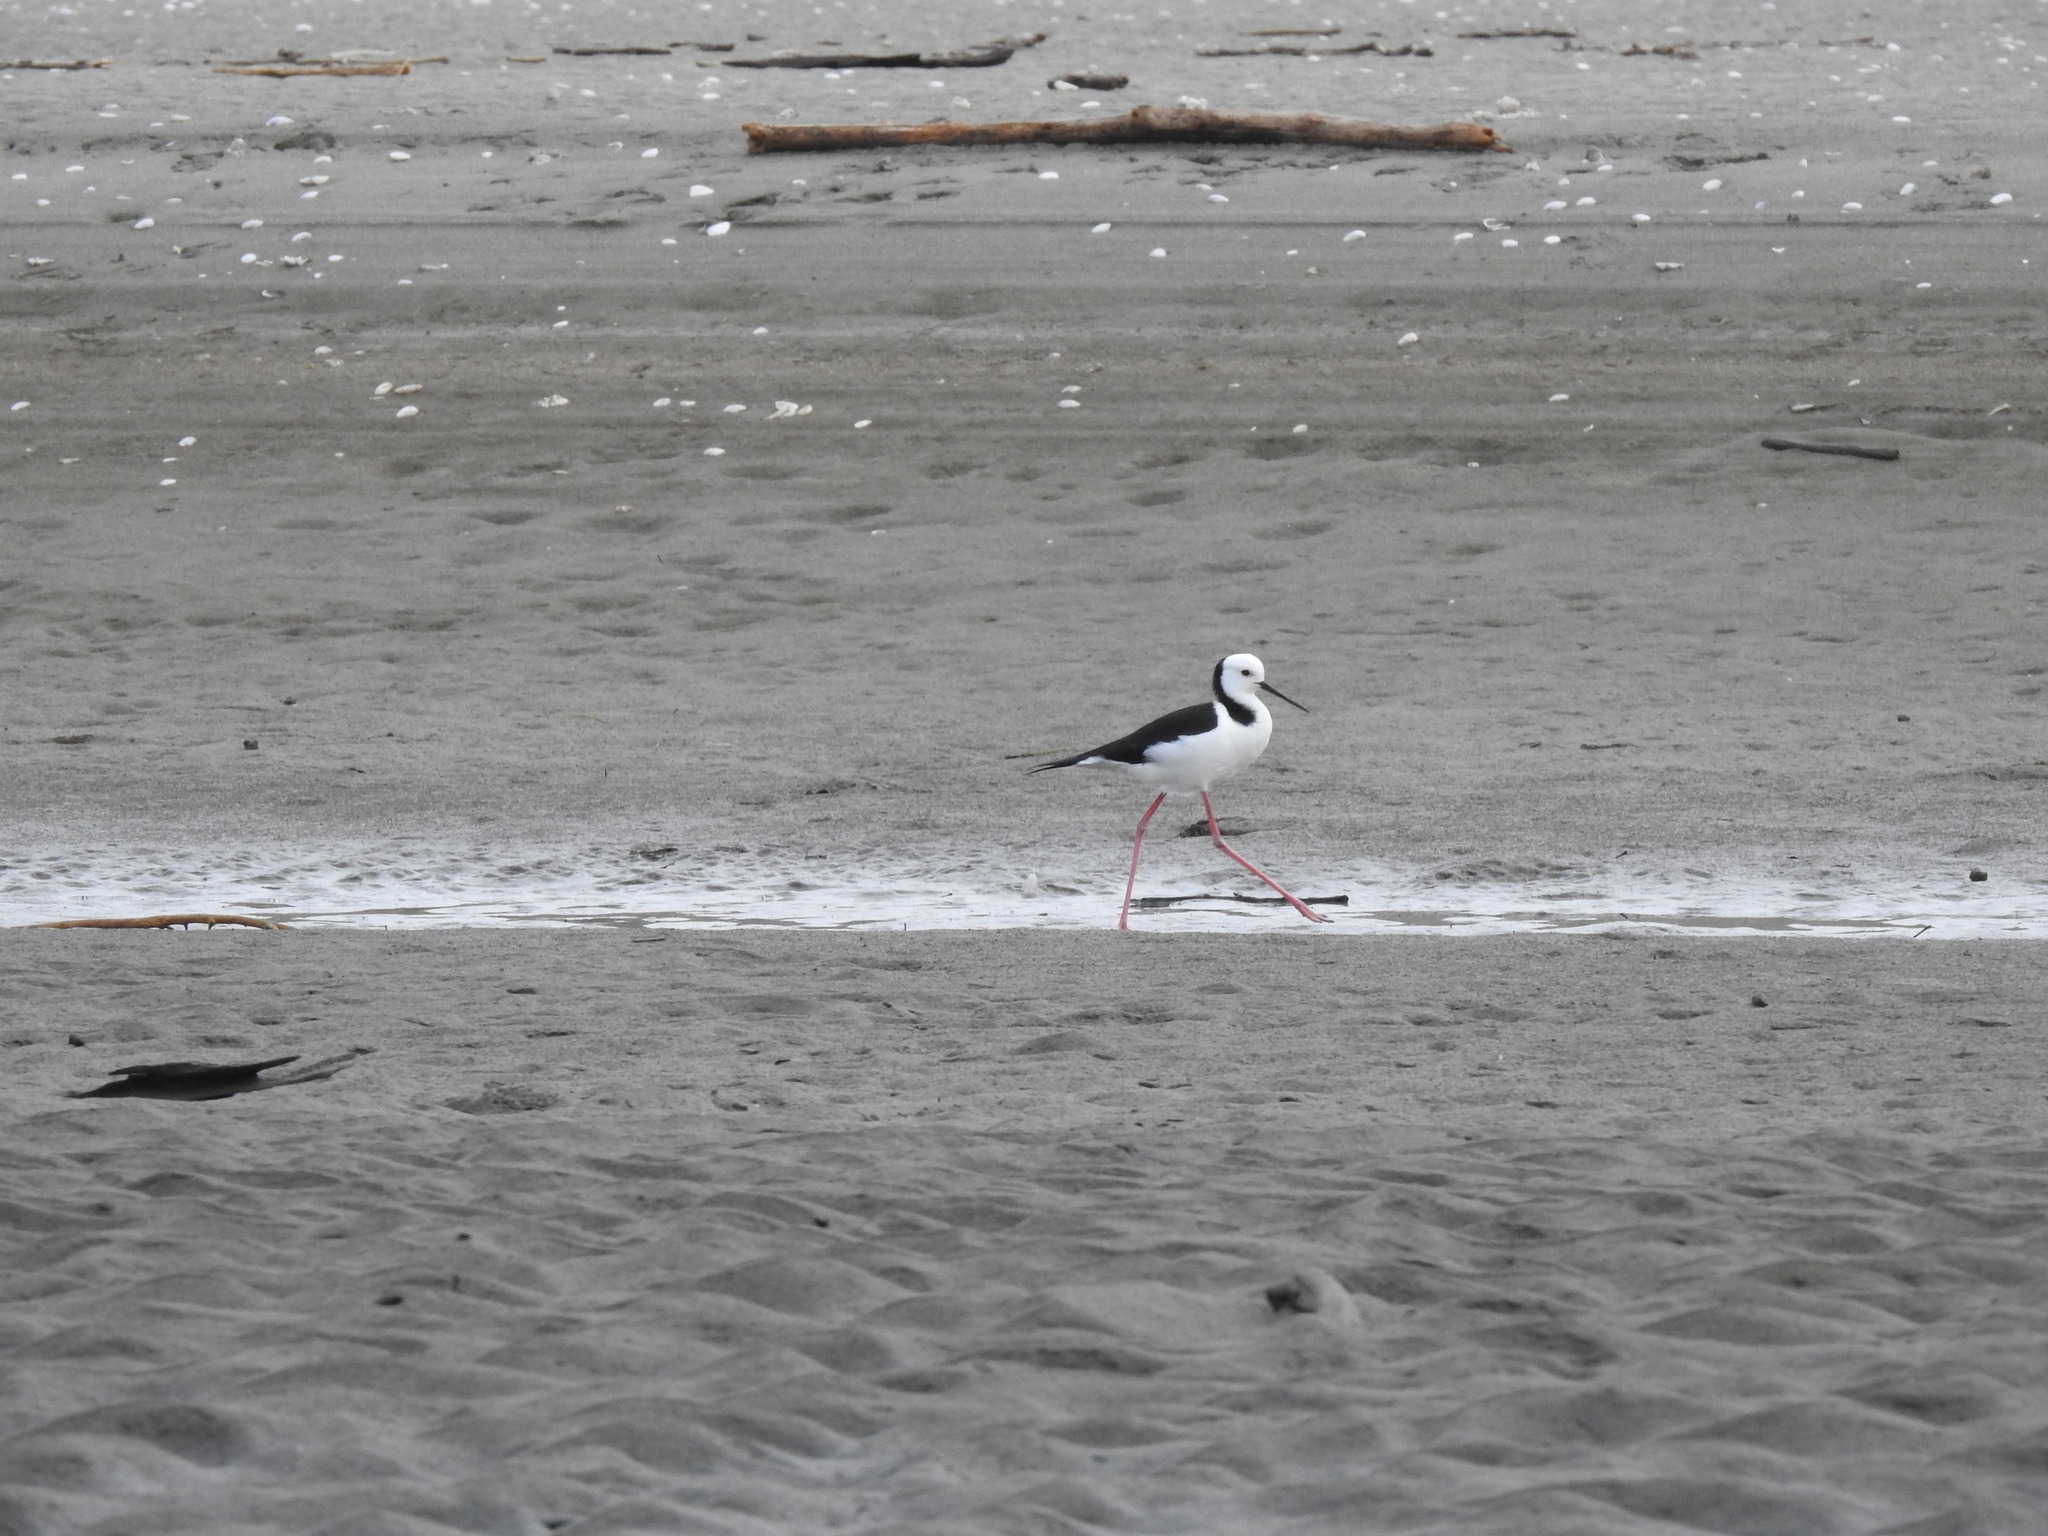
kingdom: Animalia
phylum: Chordata
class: Aves
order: Charadriiformes
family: Recurvirostridae
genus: Himantopus
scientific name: Himantopus leucocephalus
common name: White-headed stilt
